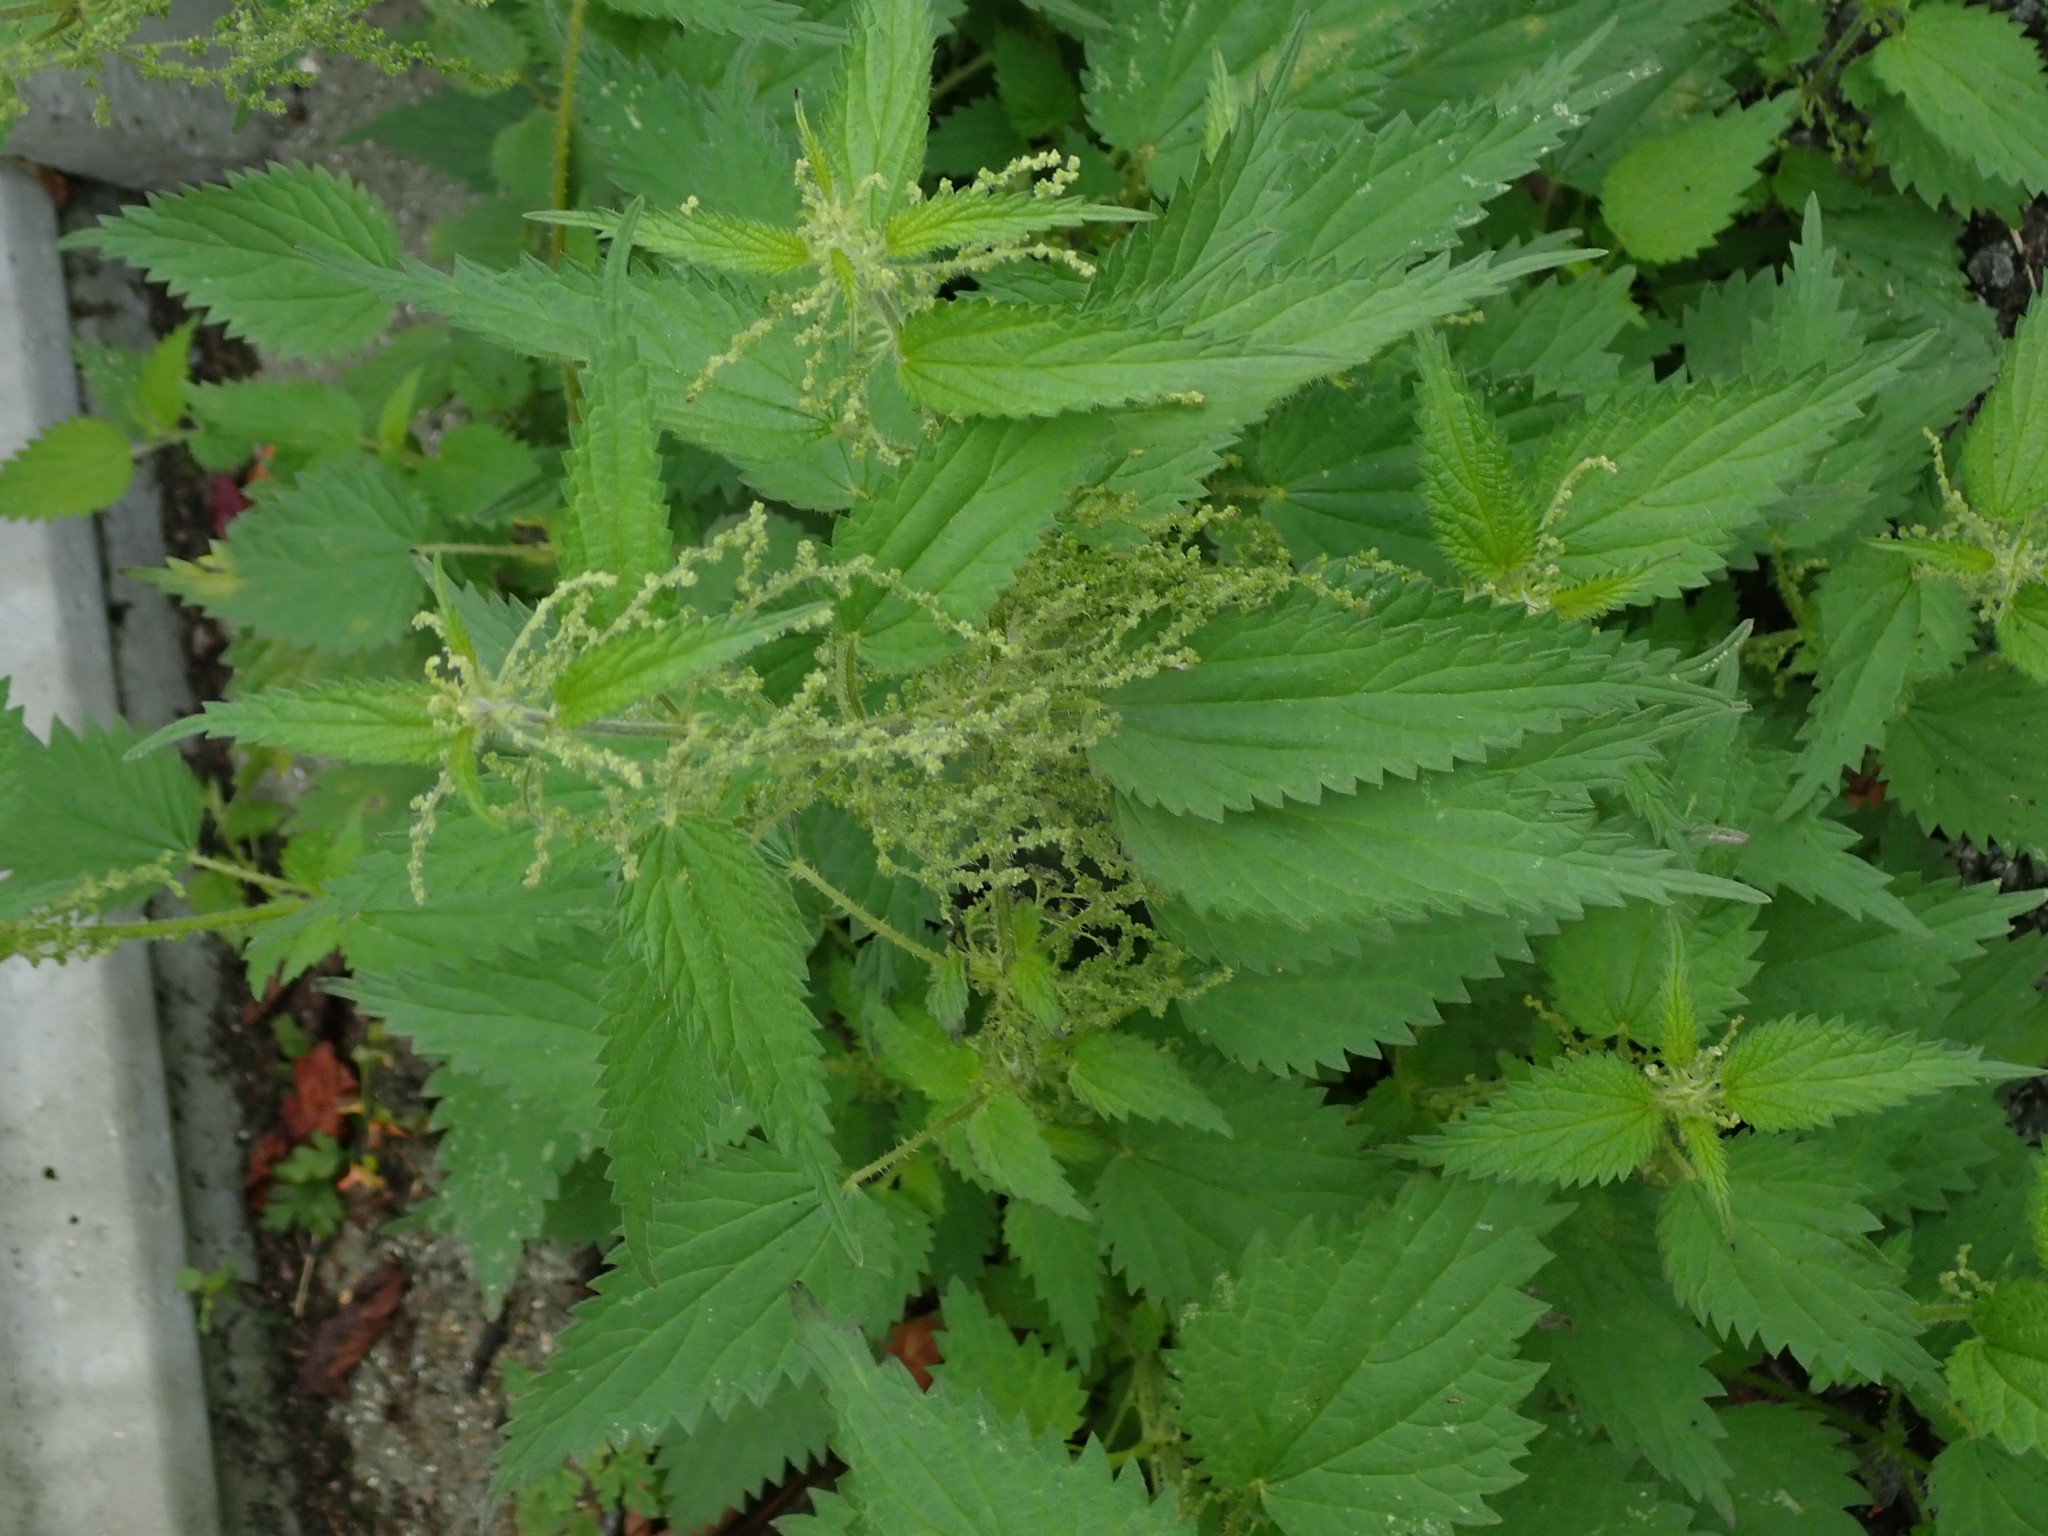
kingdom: Plantae
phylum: Tracheophyta
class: Magnoliopsida
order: Rosales
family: Urticaceae
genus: Urtica
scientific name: Urtica dioica
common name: Common nettle
